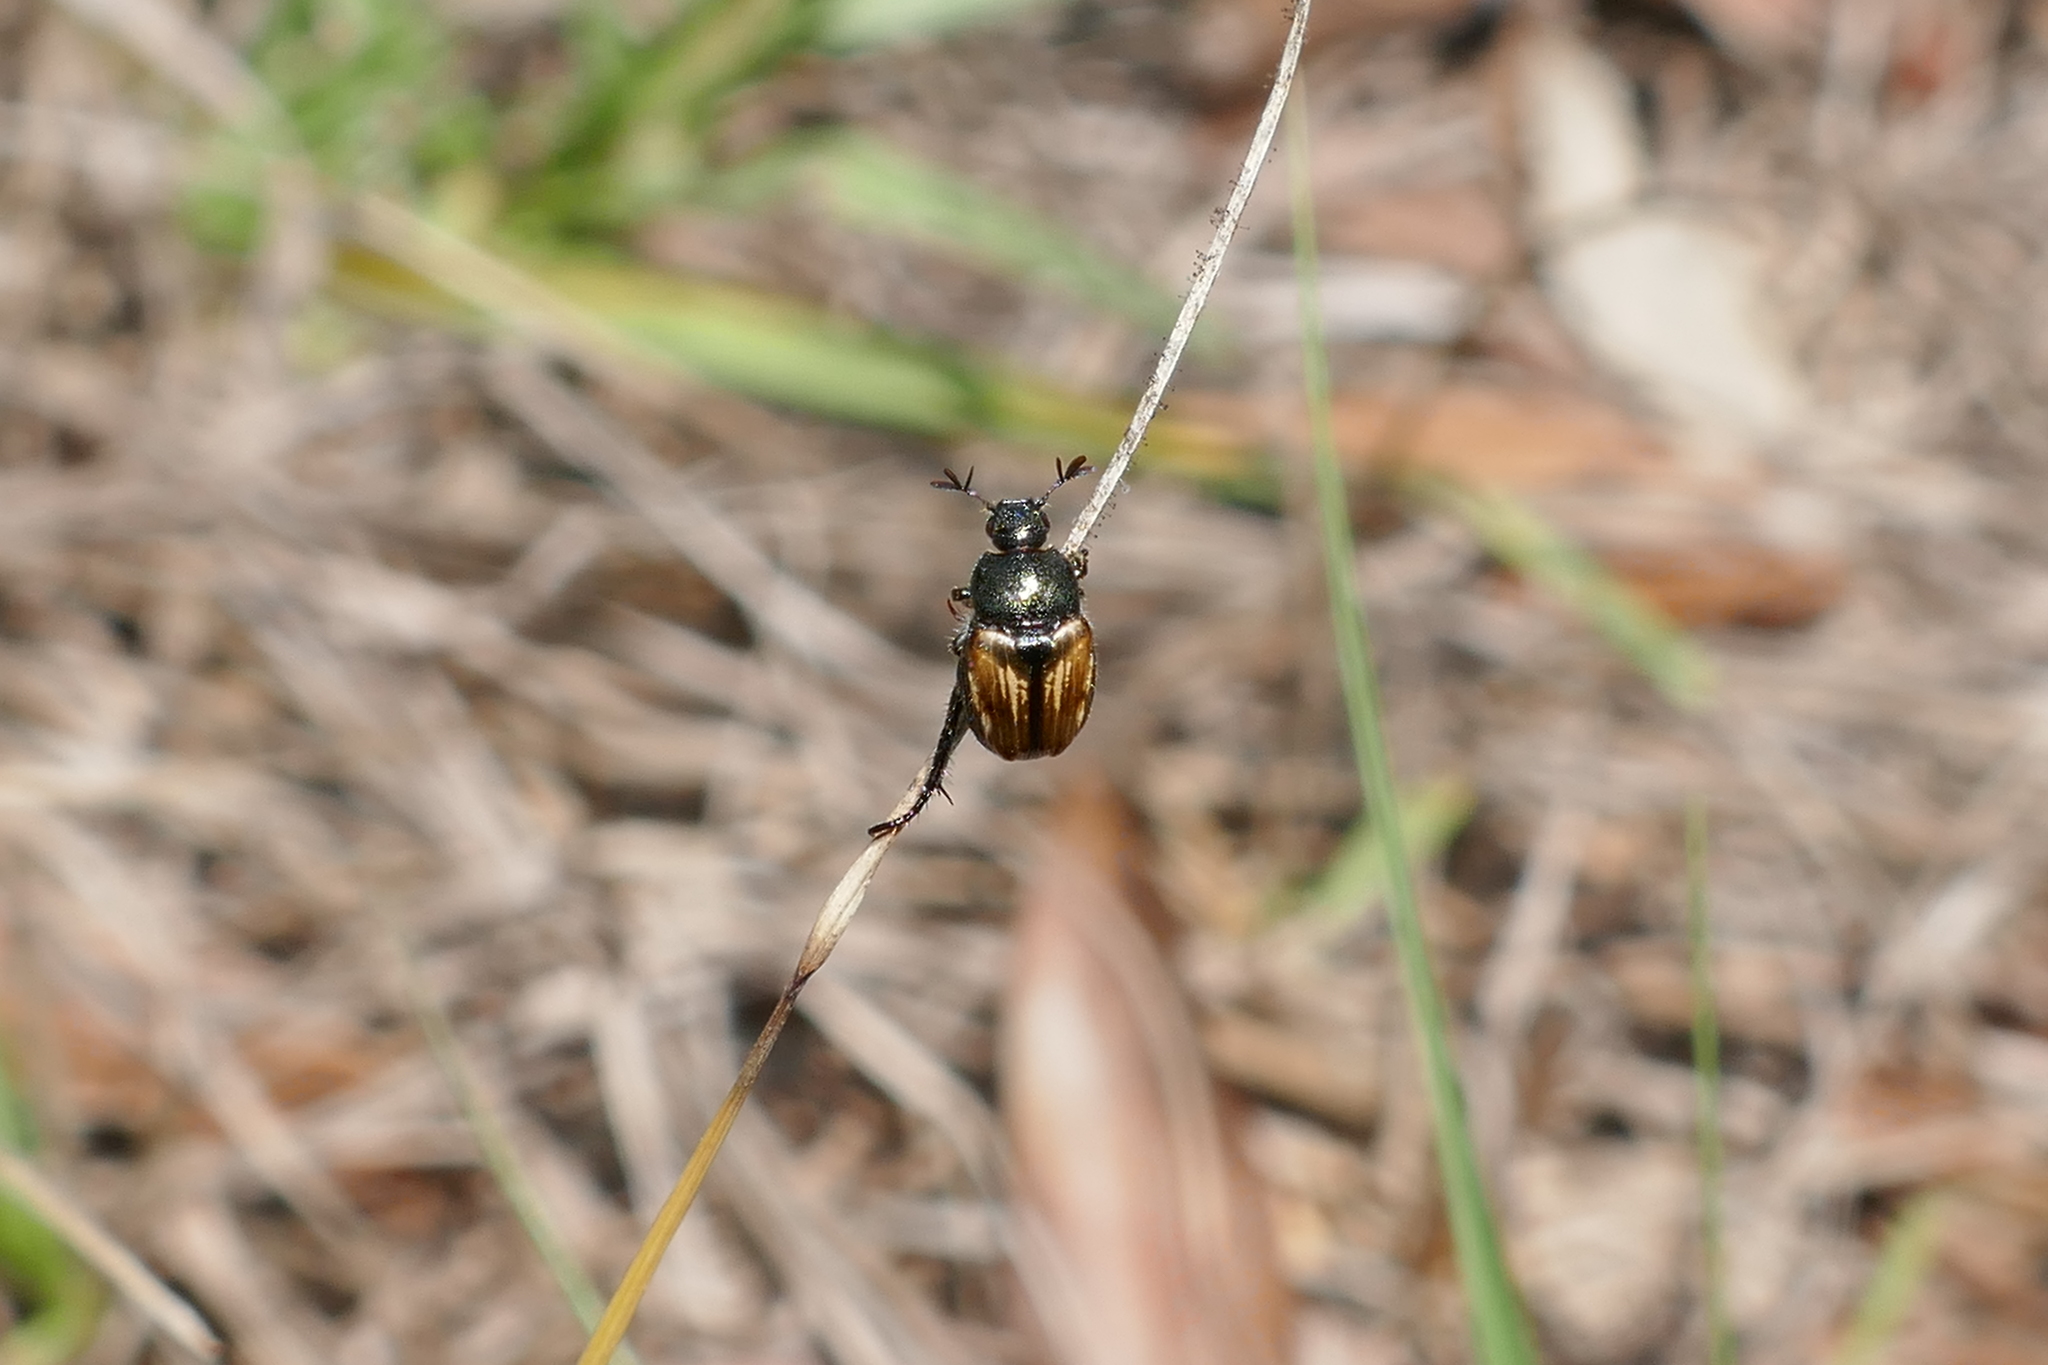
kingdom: Animalia
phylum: Arthropoda
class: Insecta
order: Coleoptera
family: Scarabaeidae
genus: Strigoderma
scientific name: Strigoderma pygmaea
